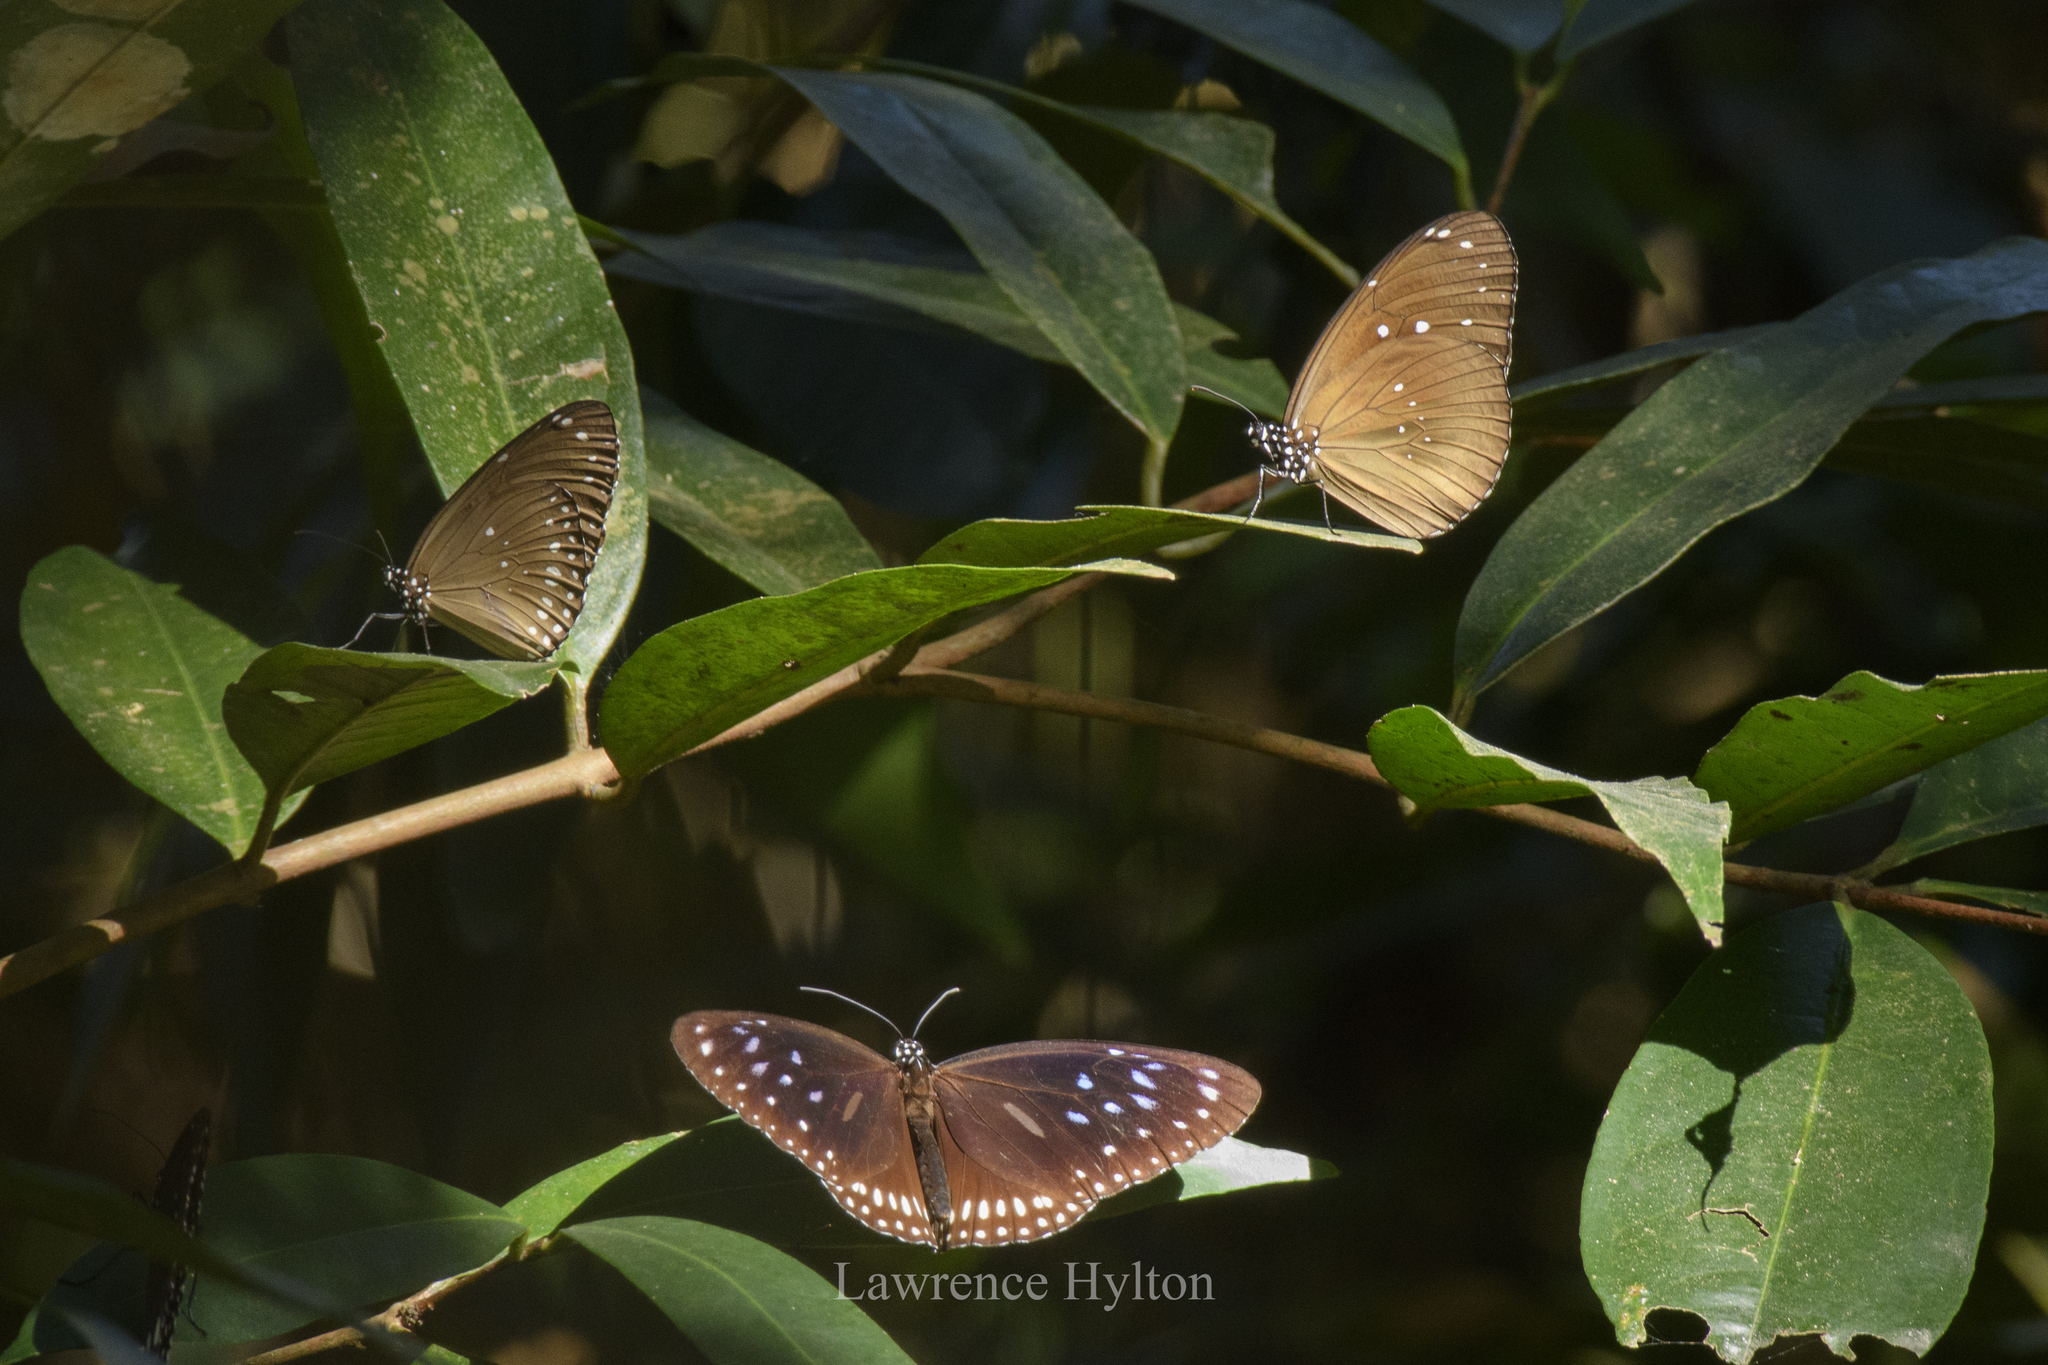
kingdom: Animalia
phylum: Arthropoda
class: Insecta
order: Lepidoptera
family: Nymphalidae
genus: Euploea
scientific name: Euploea midamus
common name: Blue-spotted crow butterfly
